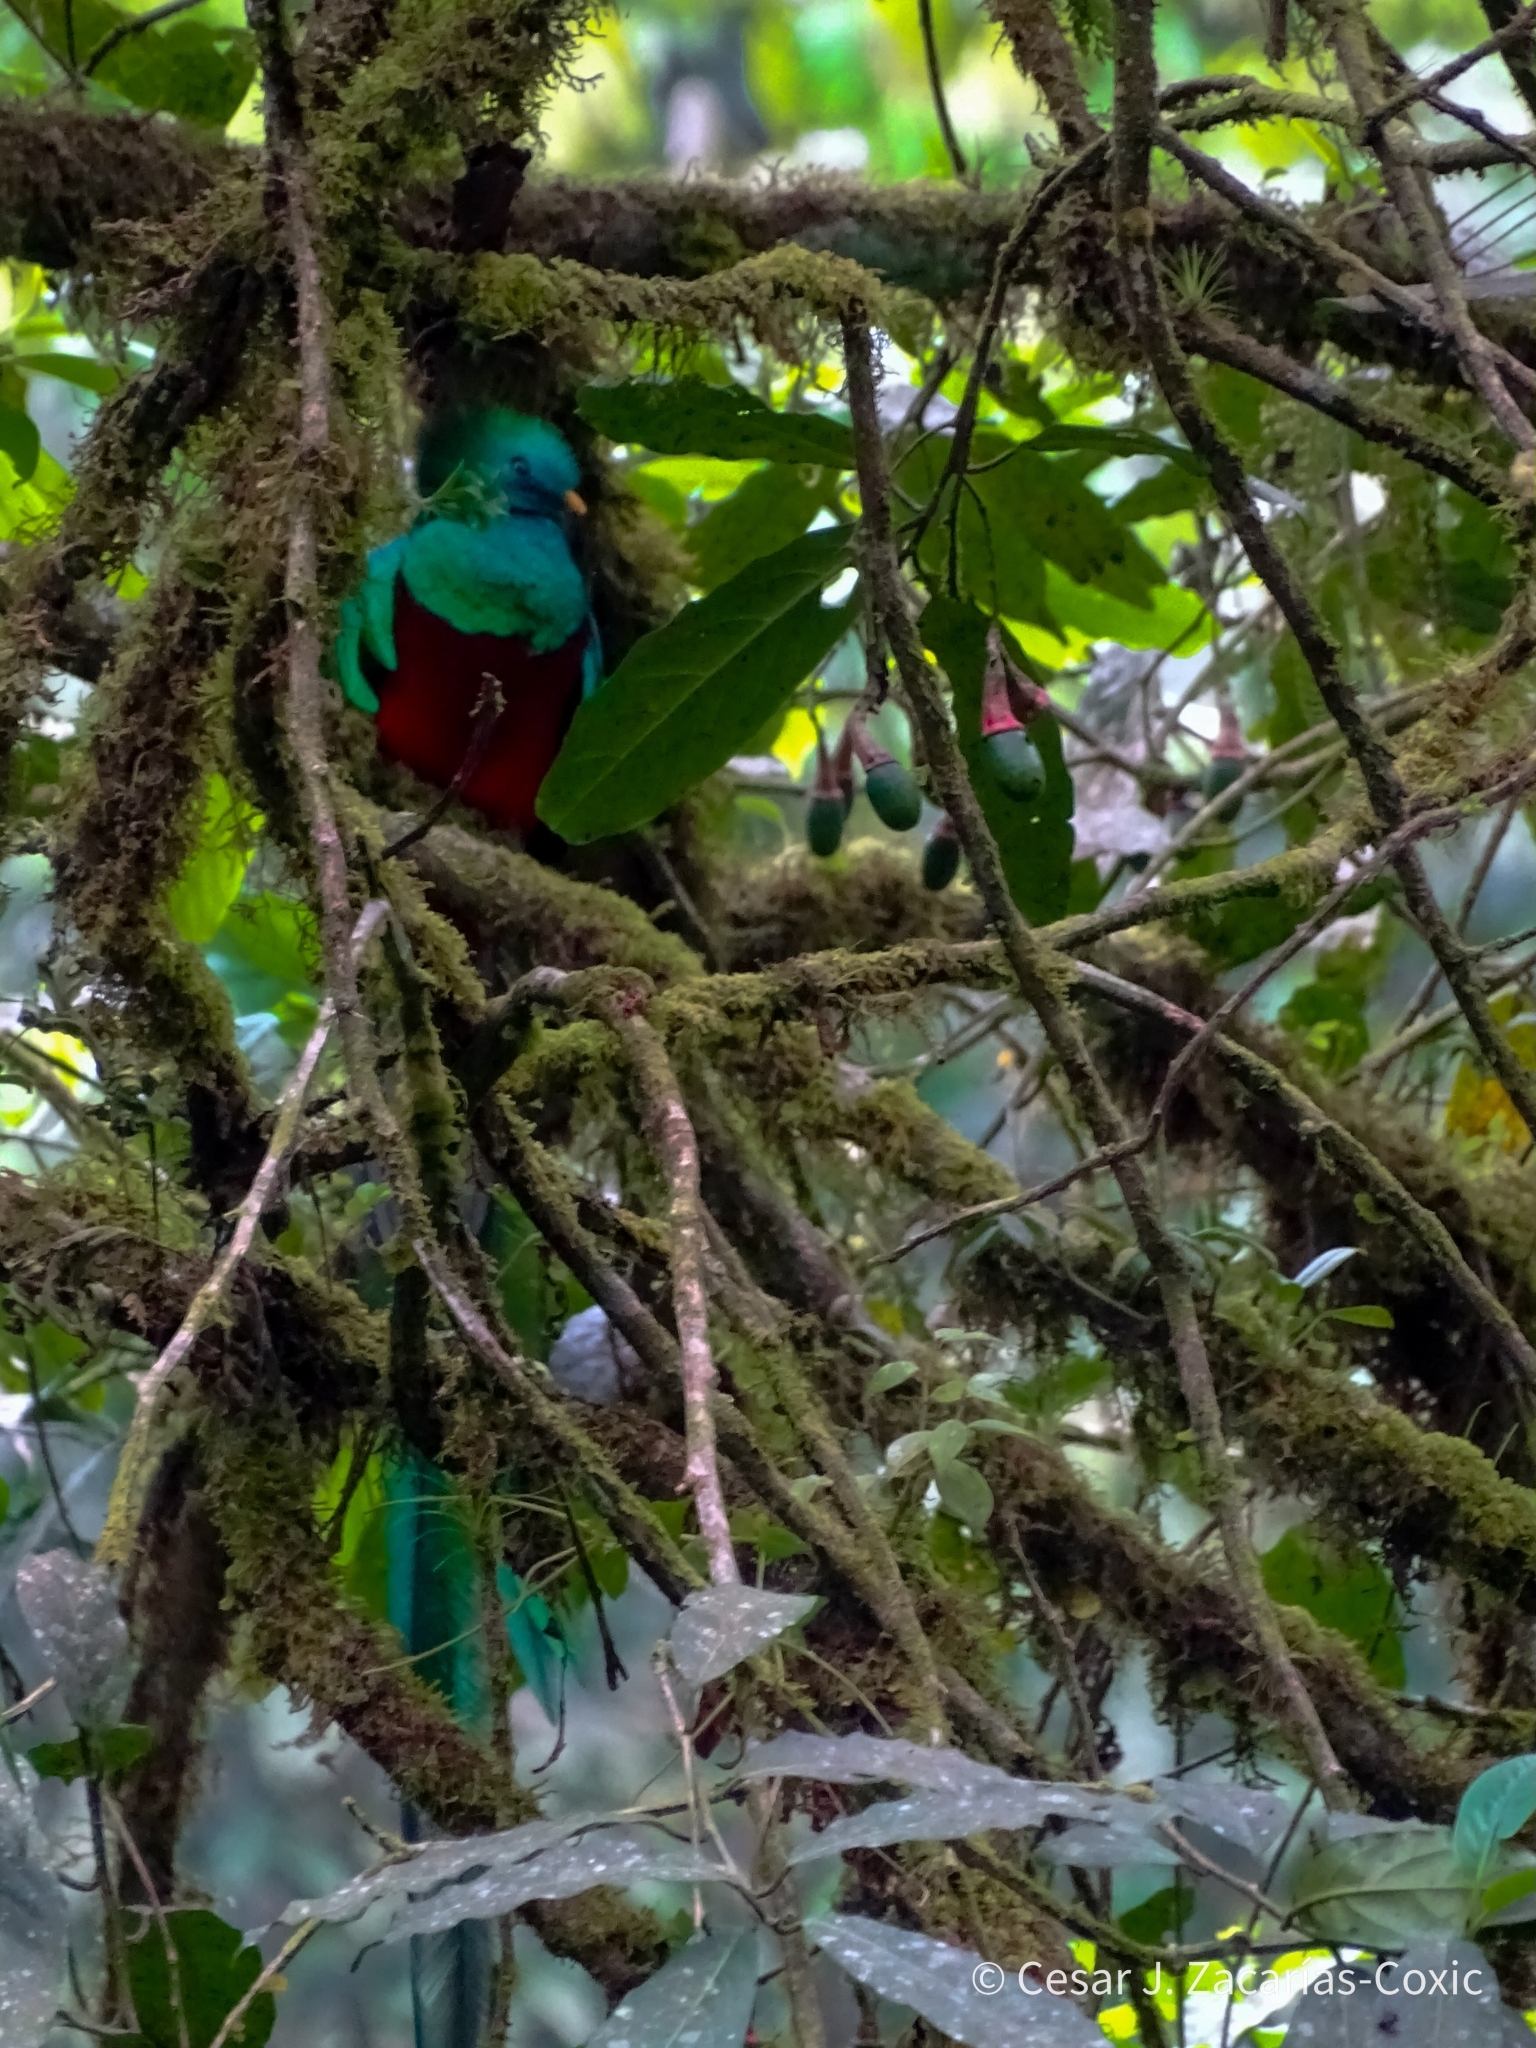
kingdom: Animalia
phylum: Chordata
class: Aves
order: Trogoniformes
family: Trogonidae
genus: Pharomachrus
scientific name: Pharomachrus mocinno
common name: Resplendent quetzal
